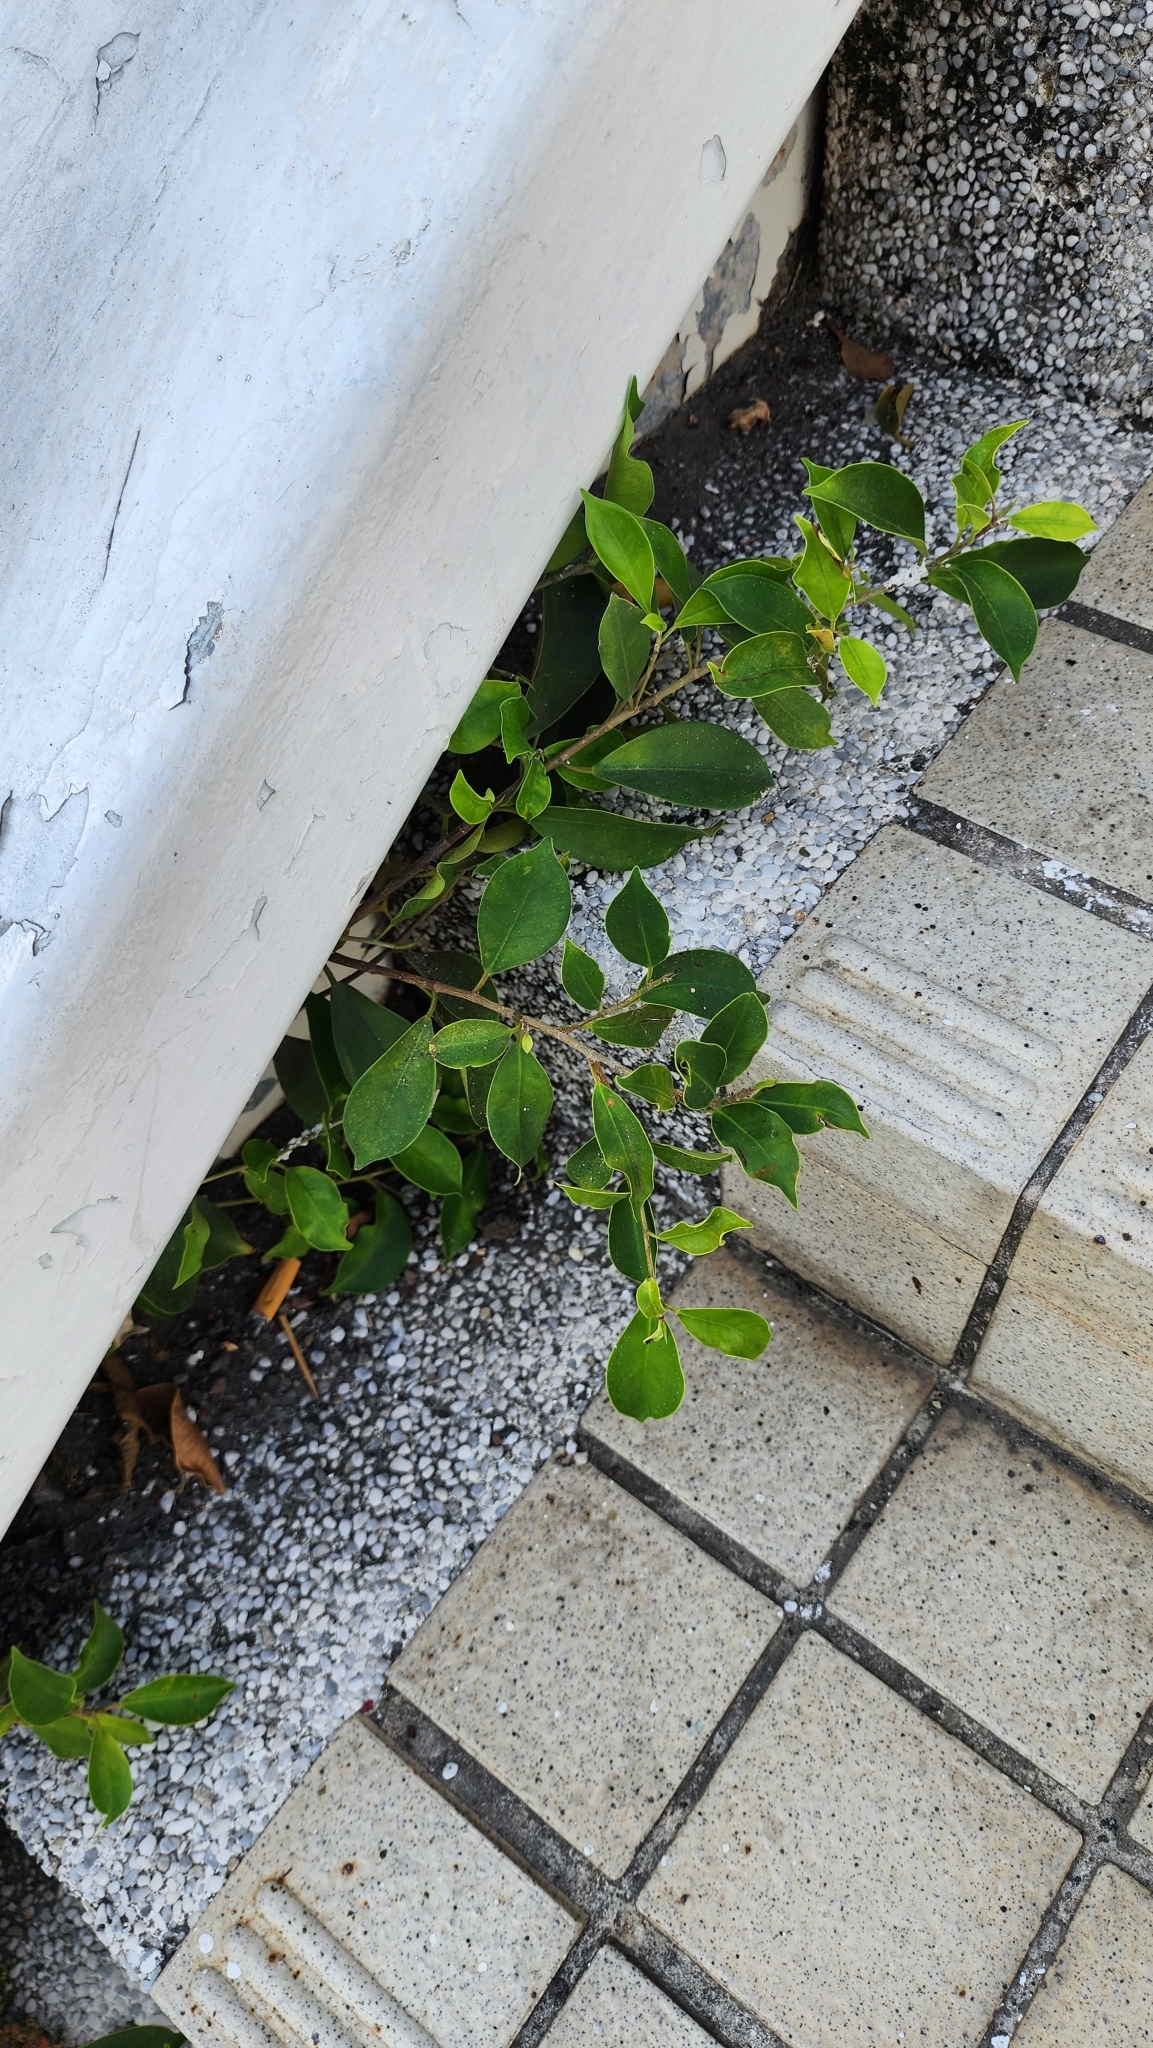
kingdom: Plantae
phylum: Tracheophyta
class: Magnoliopsida
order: Rosales
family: Moraceae
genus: Ficus
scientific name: Ficus microcarpa
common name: Chinese banyan
